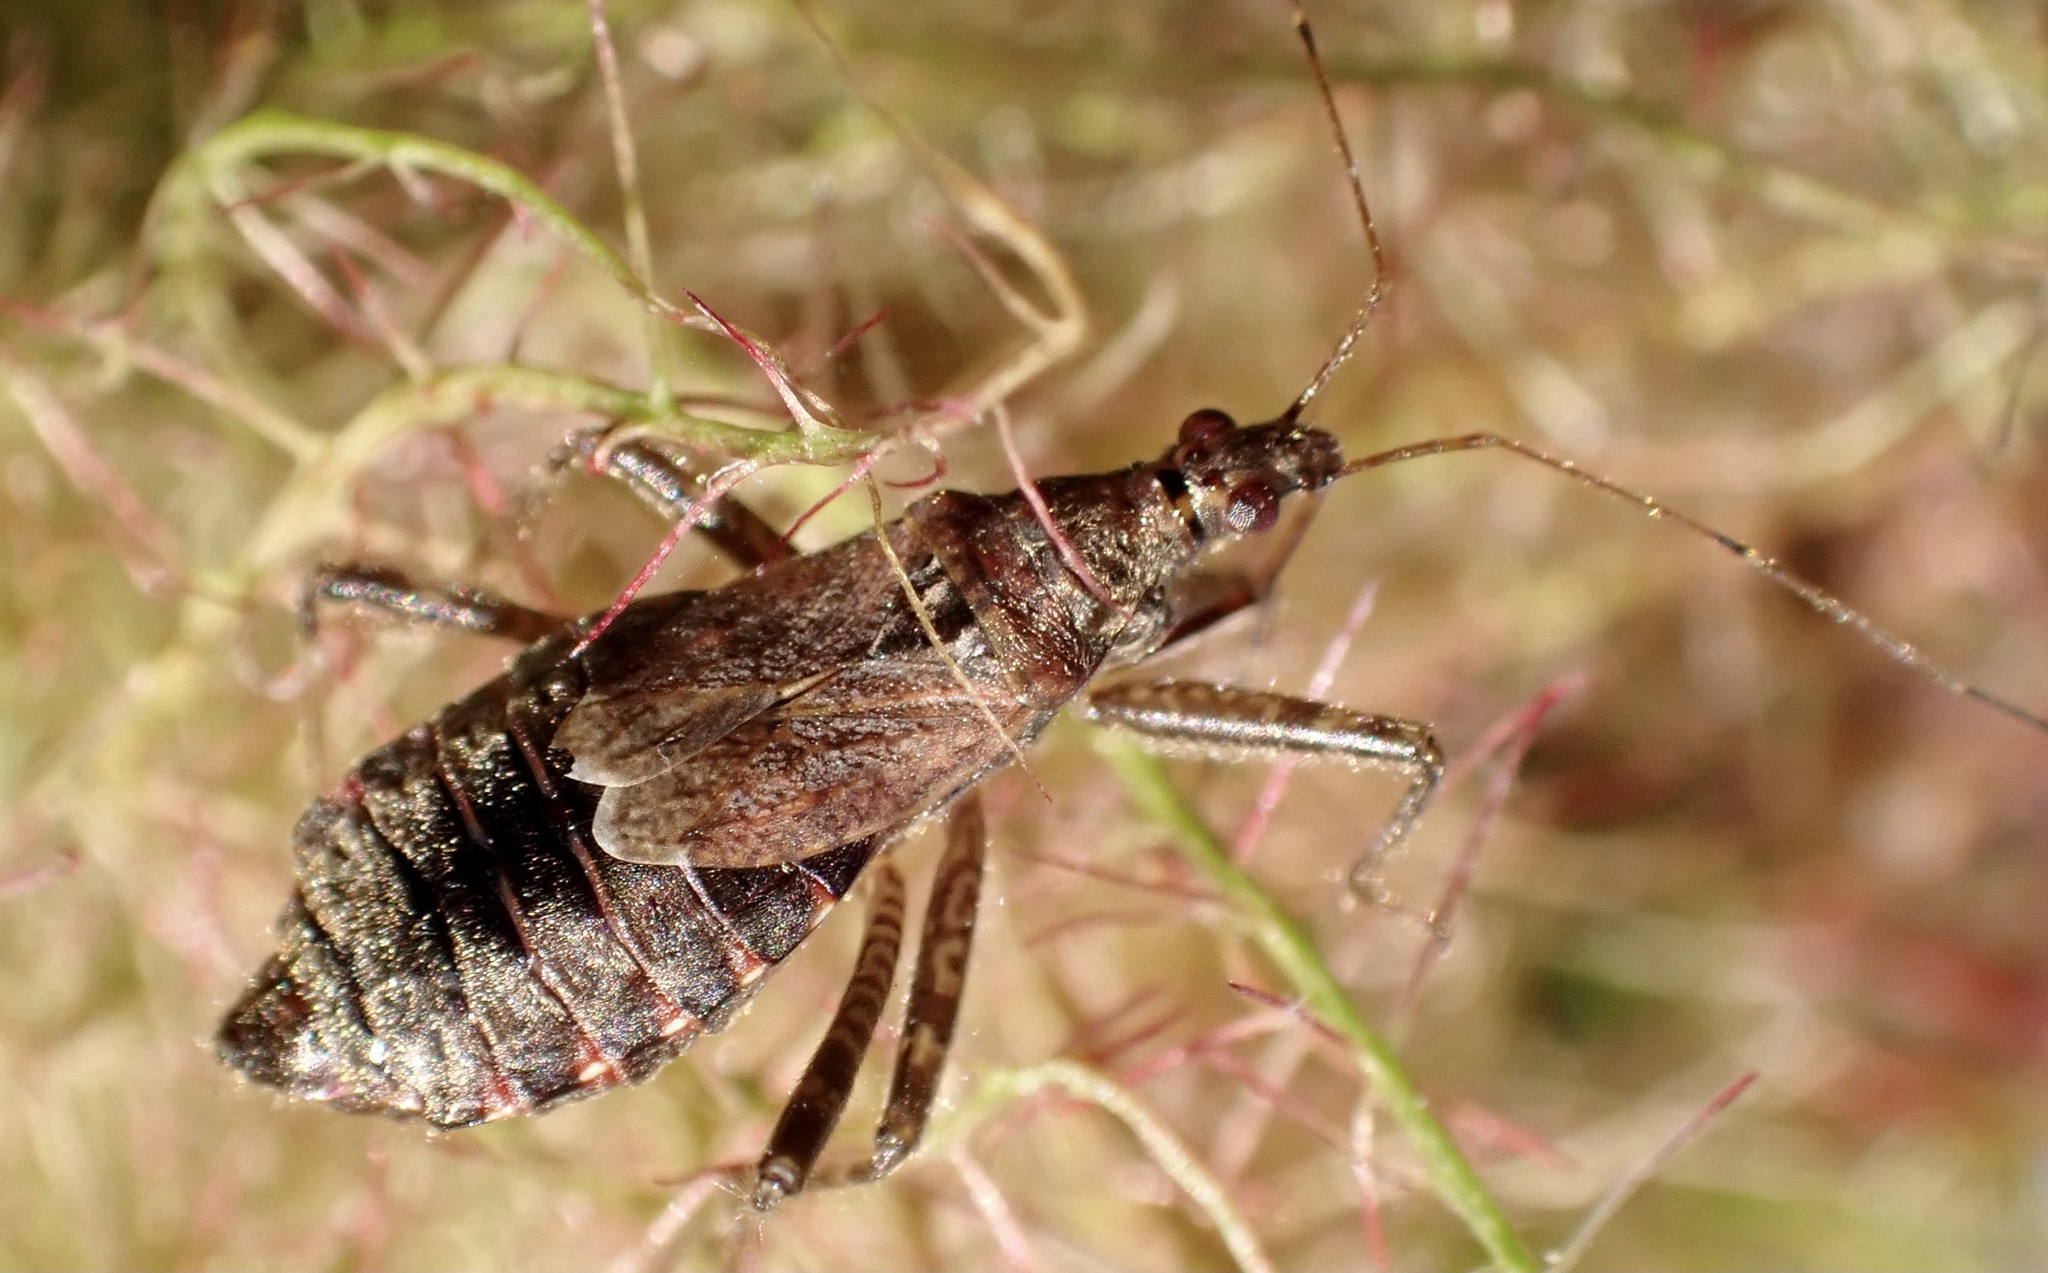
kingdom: Animalia
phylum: Arthropoda
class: Insecta
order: Hemiptera
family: Nabidae
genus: Himacerus
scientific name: Himacerus apterus
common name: Tree damsel bug
